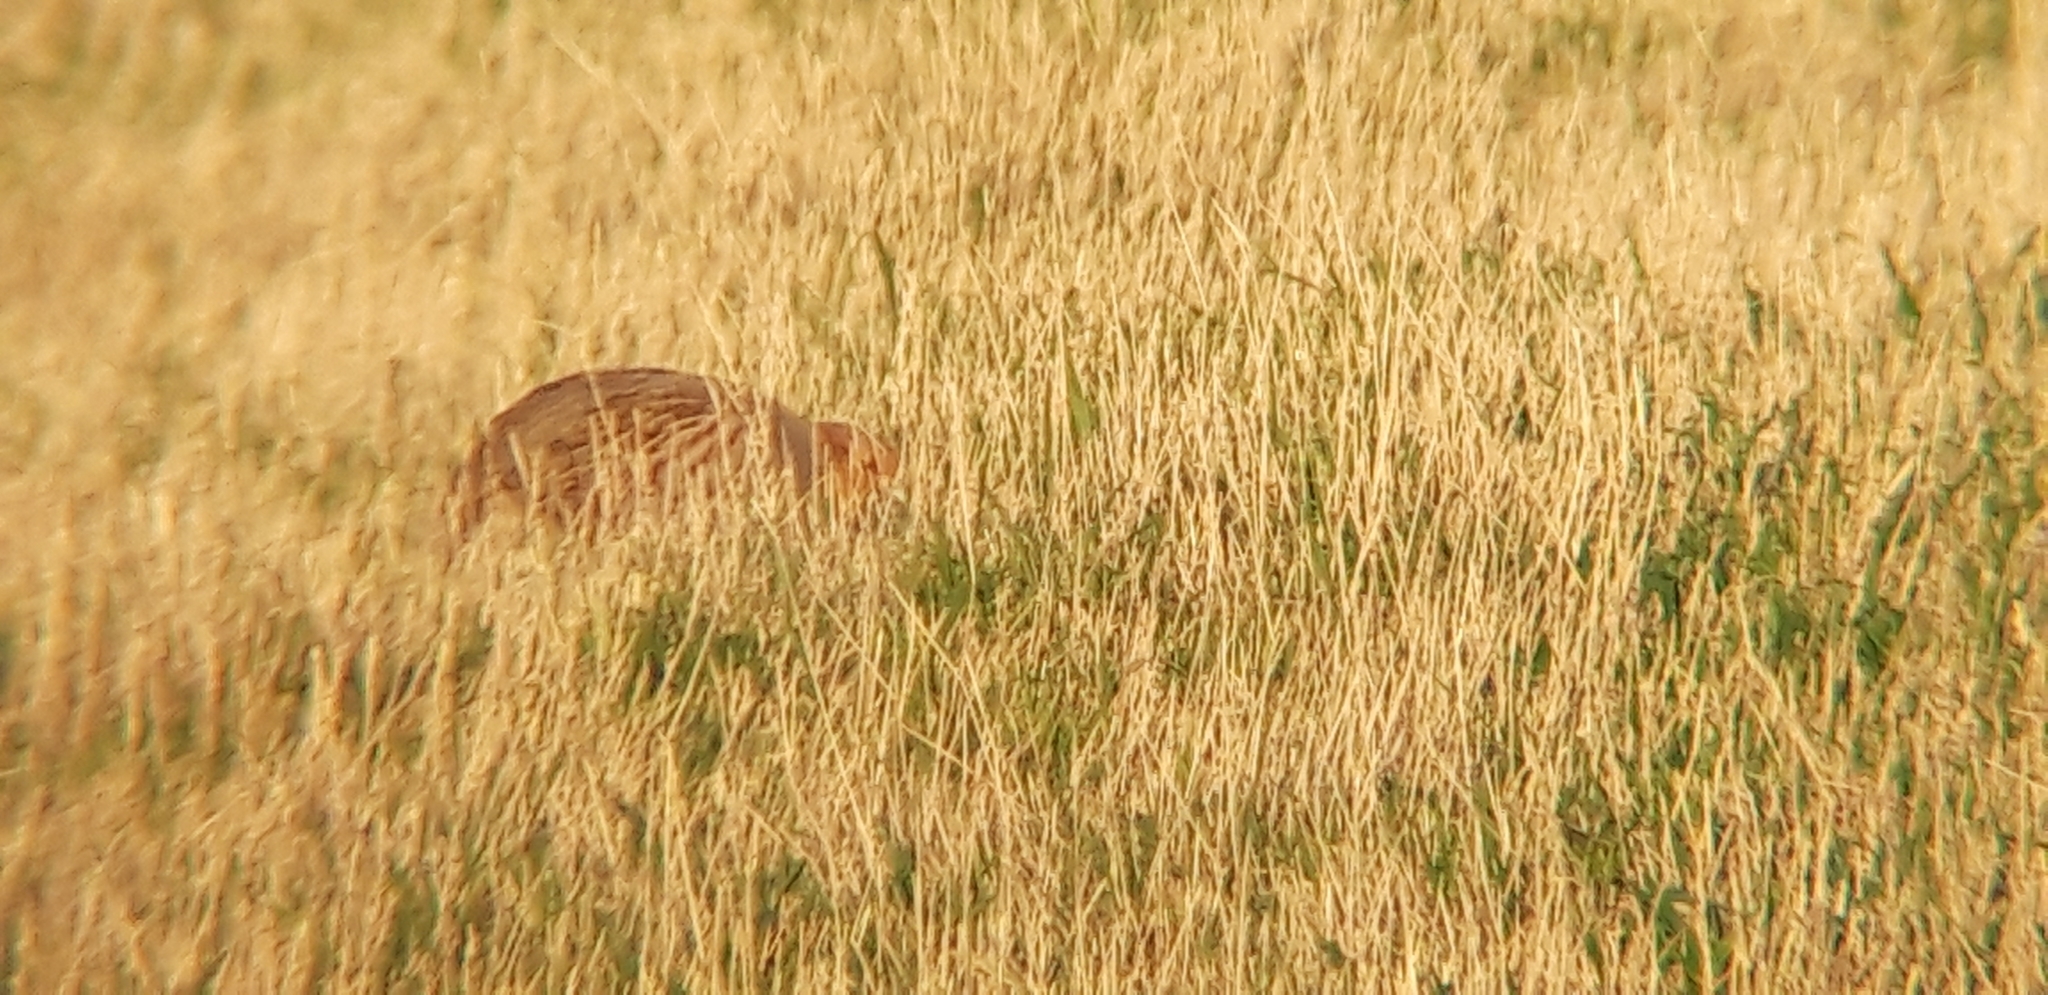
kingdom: Animalia
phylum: Chordata
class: Aves
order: Galliformes
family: Phasianidae
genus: Perdix
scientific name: Perdix perdix
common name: Grey partridge
